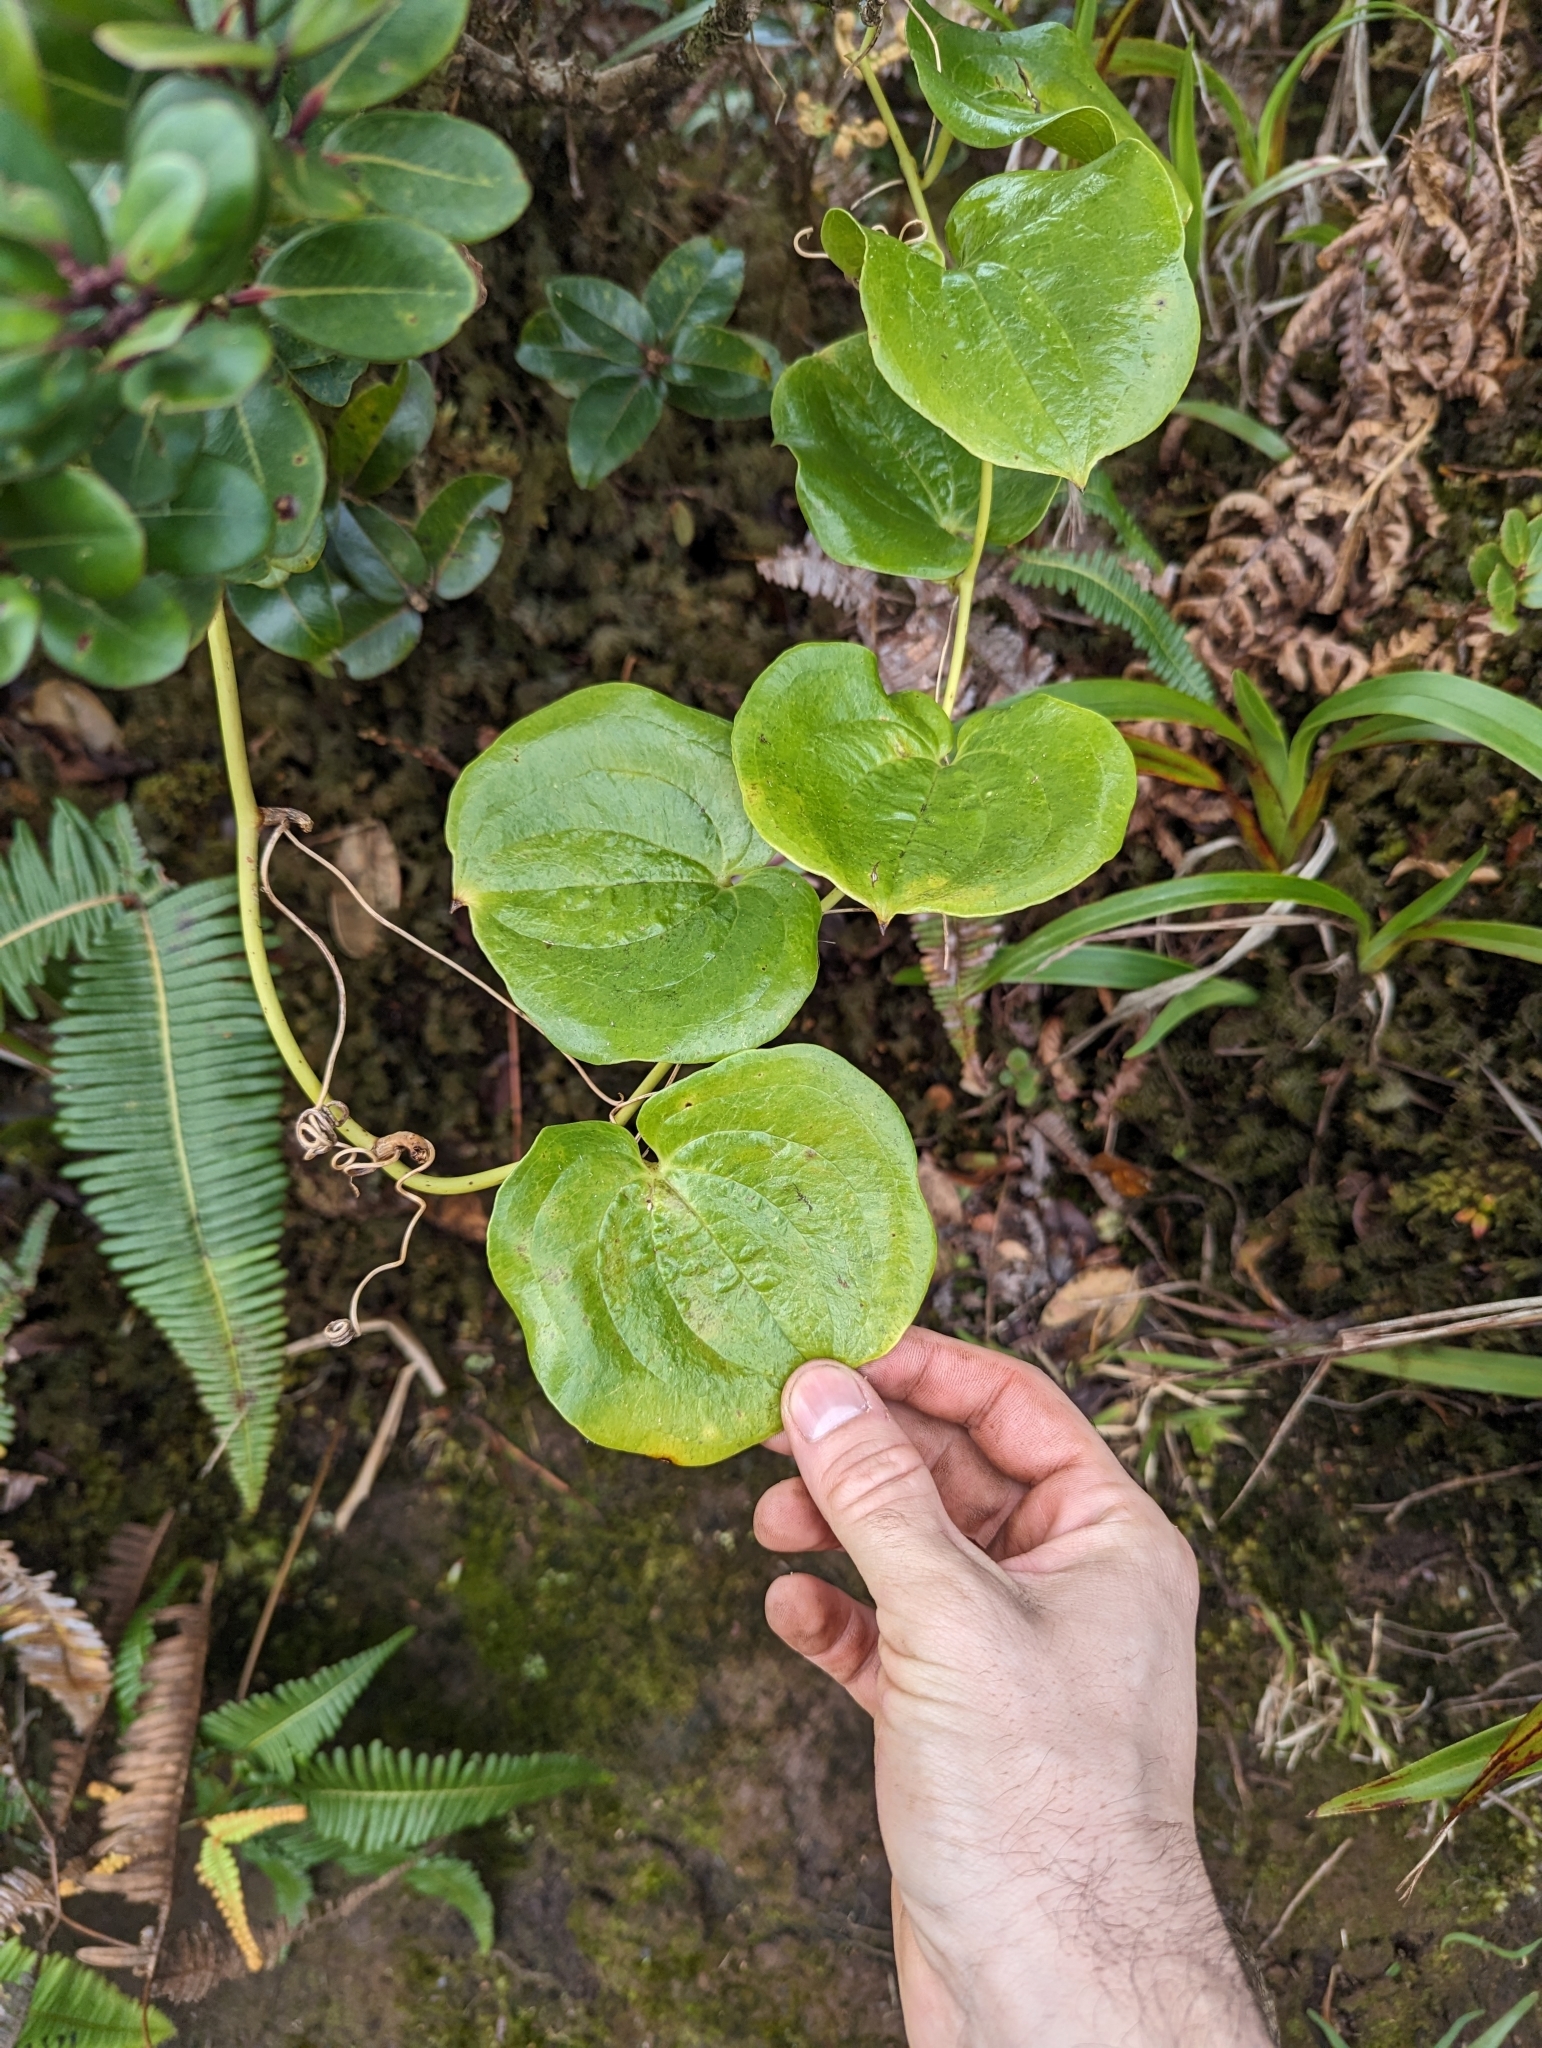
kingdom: Plantae
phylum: Tracheophyta
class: Liliopsida
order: Liliales
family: Smilacaceae
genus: Smilax
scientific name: Smilax melastomifolia
